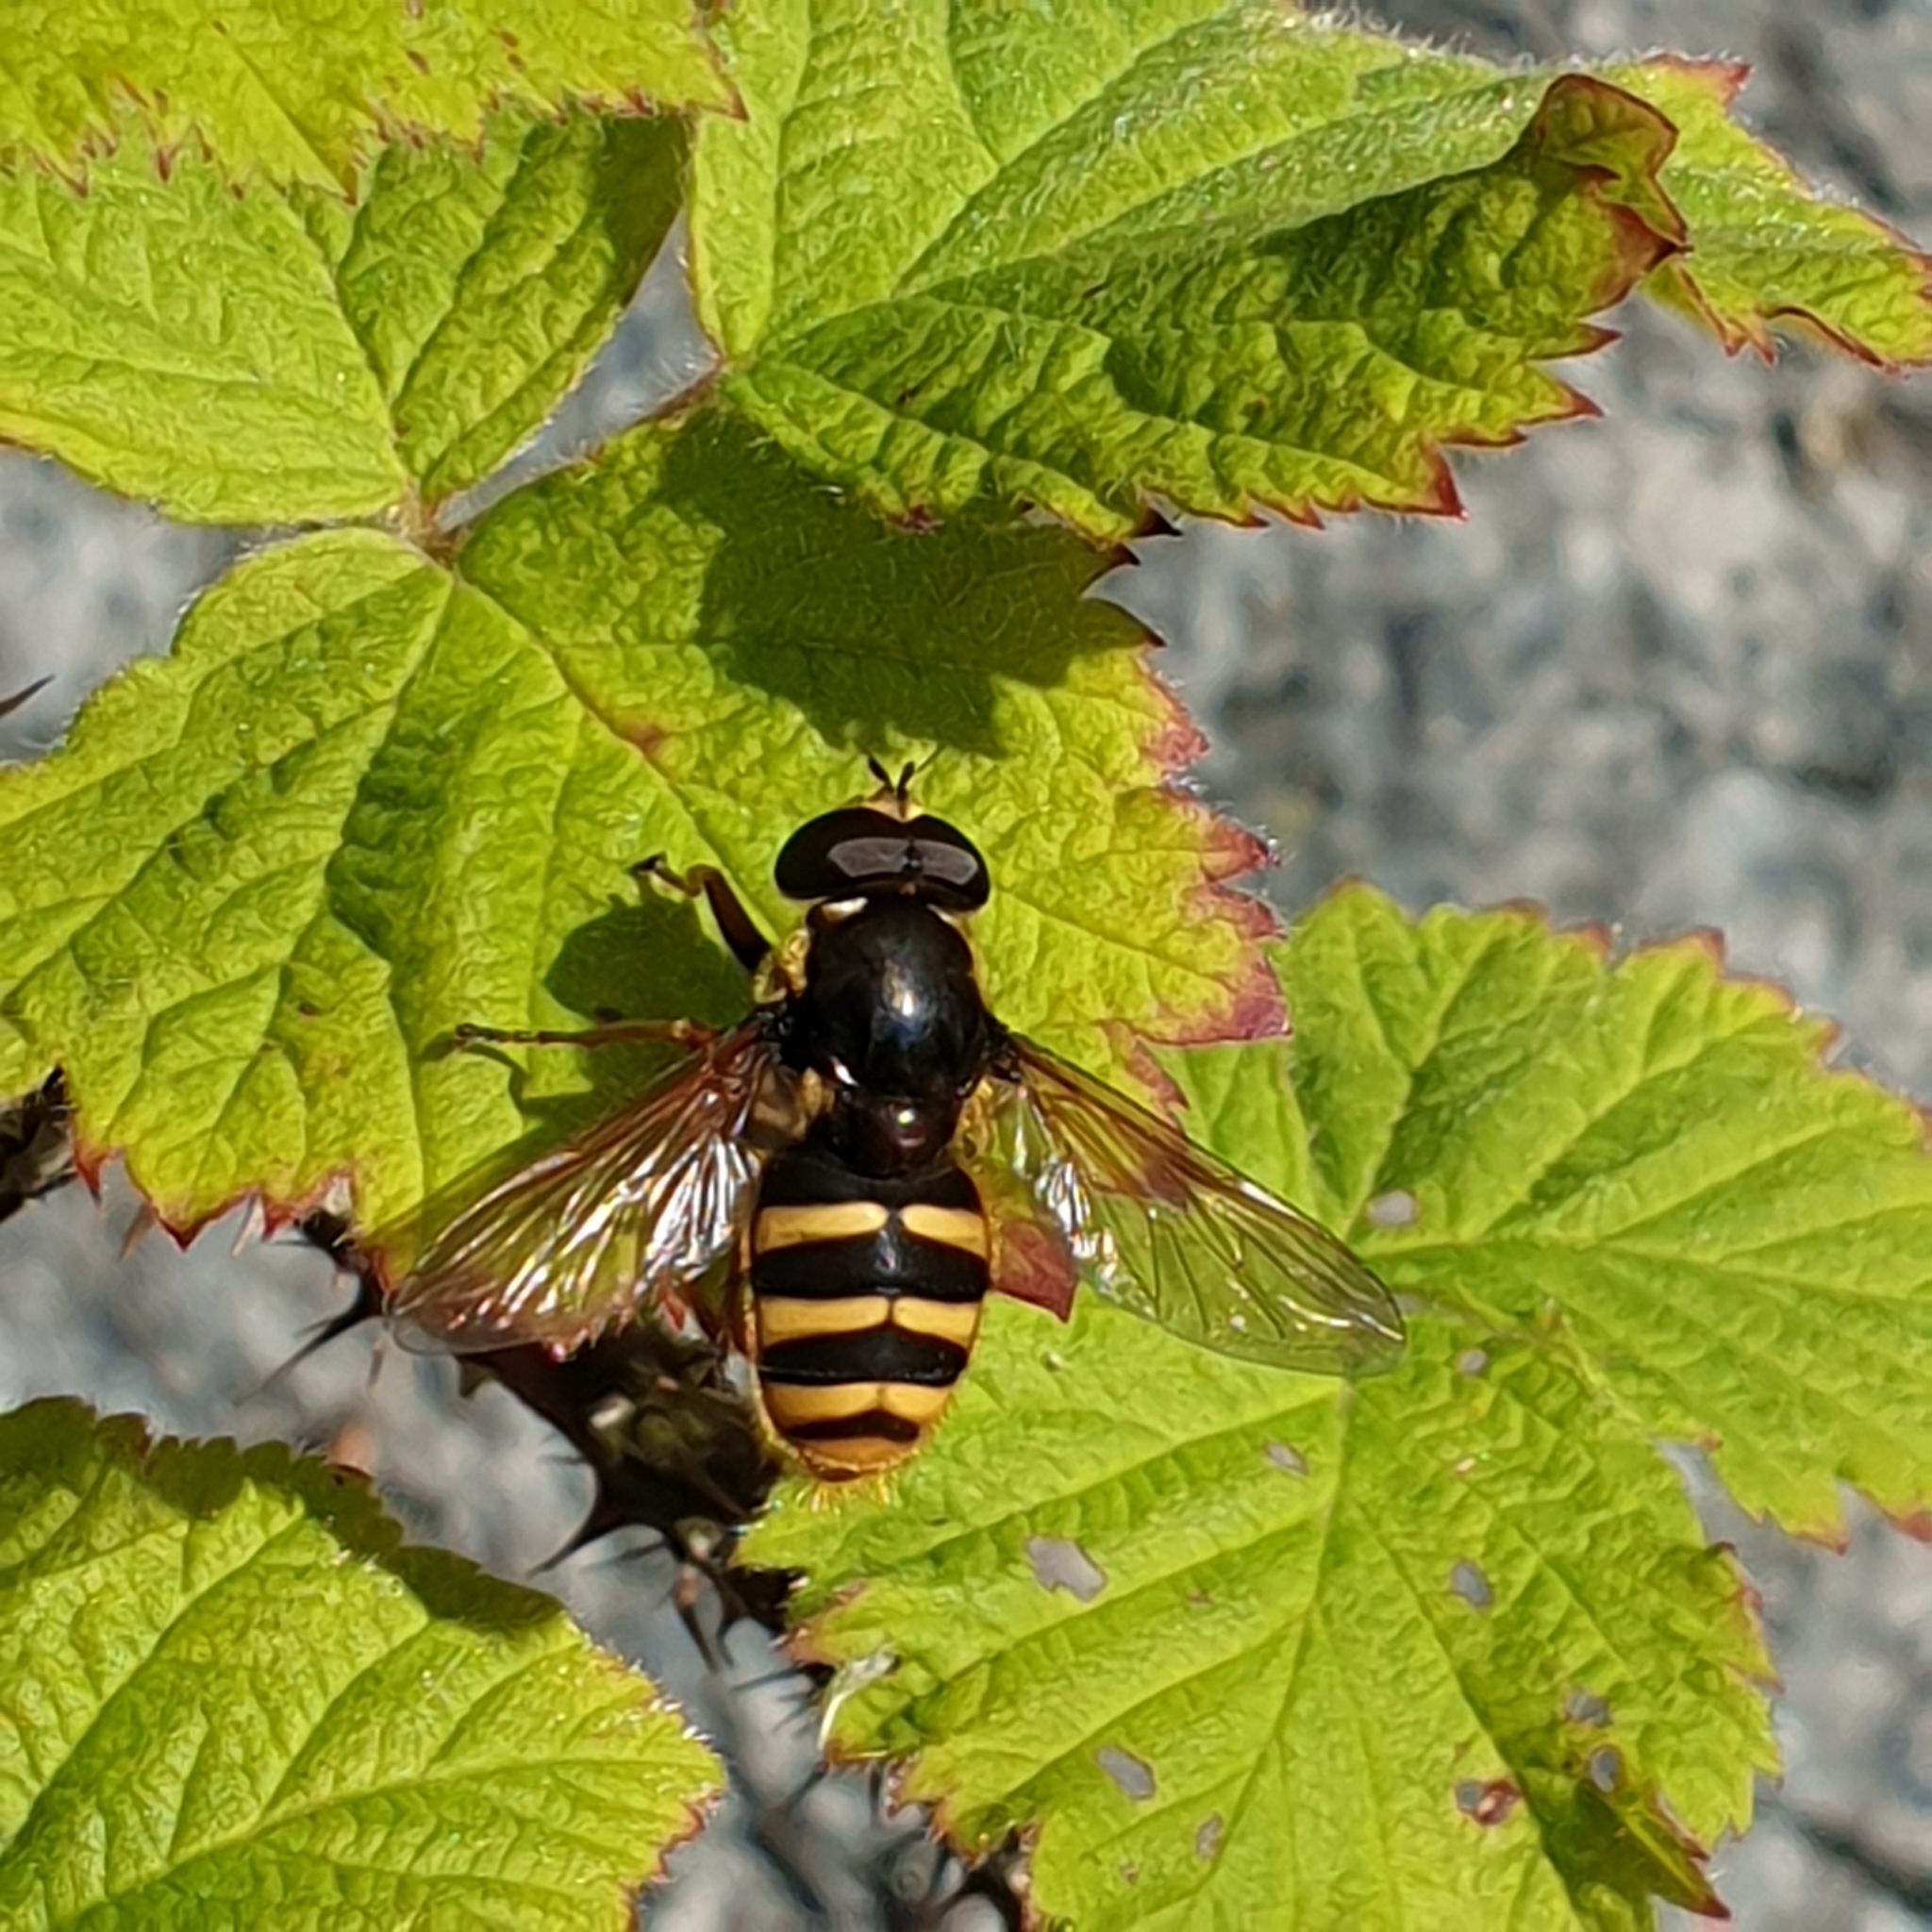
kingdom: Animalia
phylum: Arthropoda
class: Insecta
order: Diptera
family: Syrphidae
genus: Sericomyia
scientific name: Sericomyia silentis
